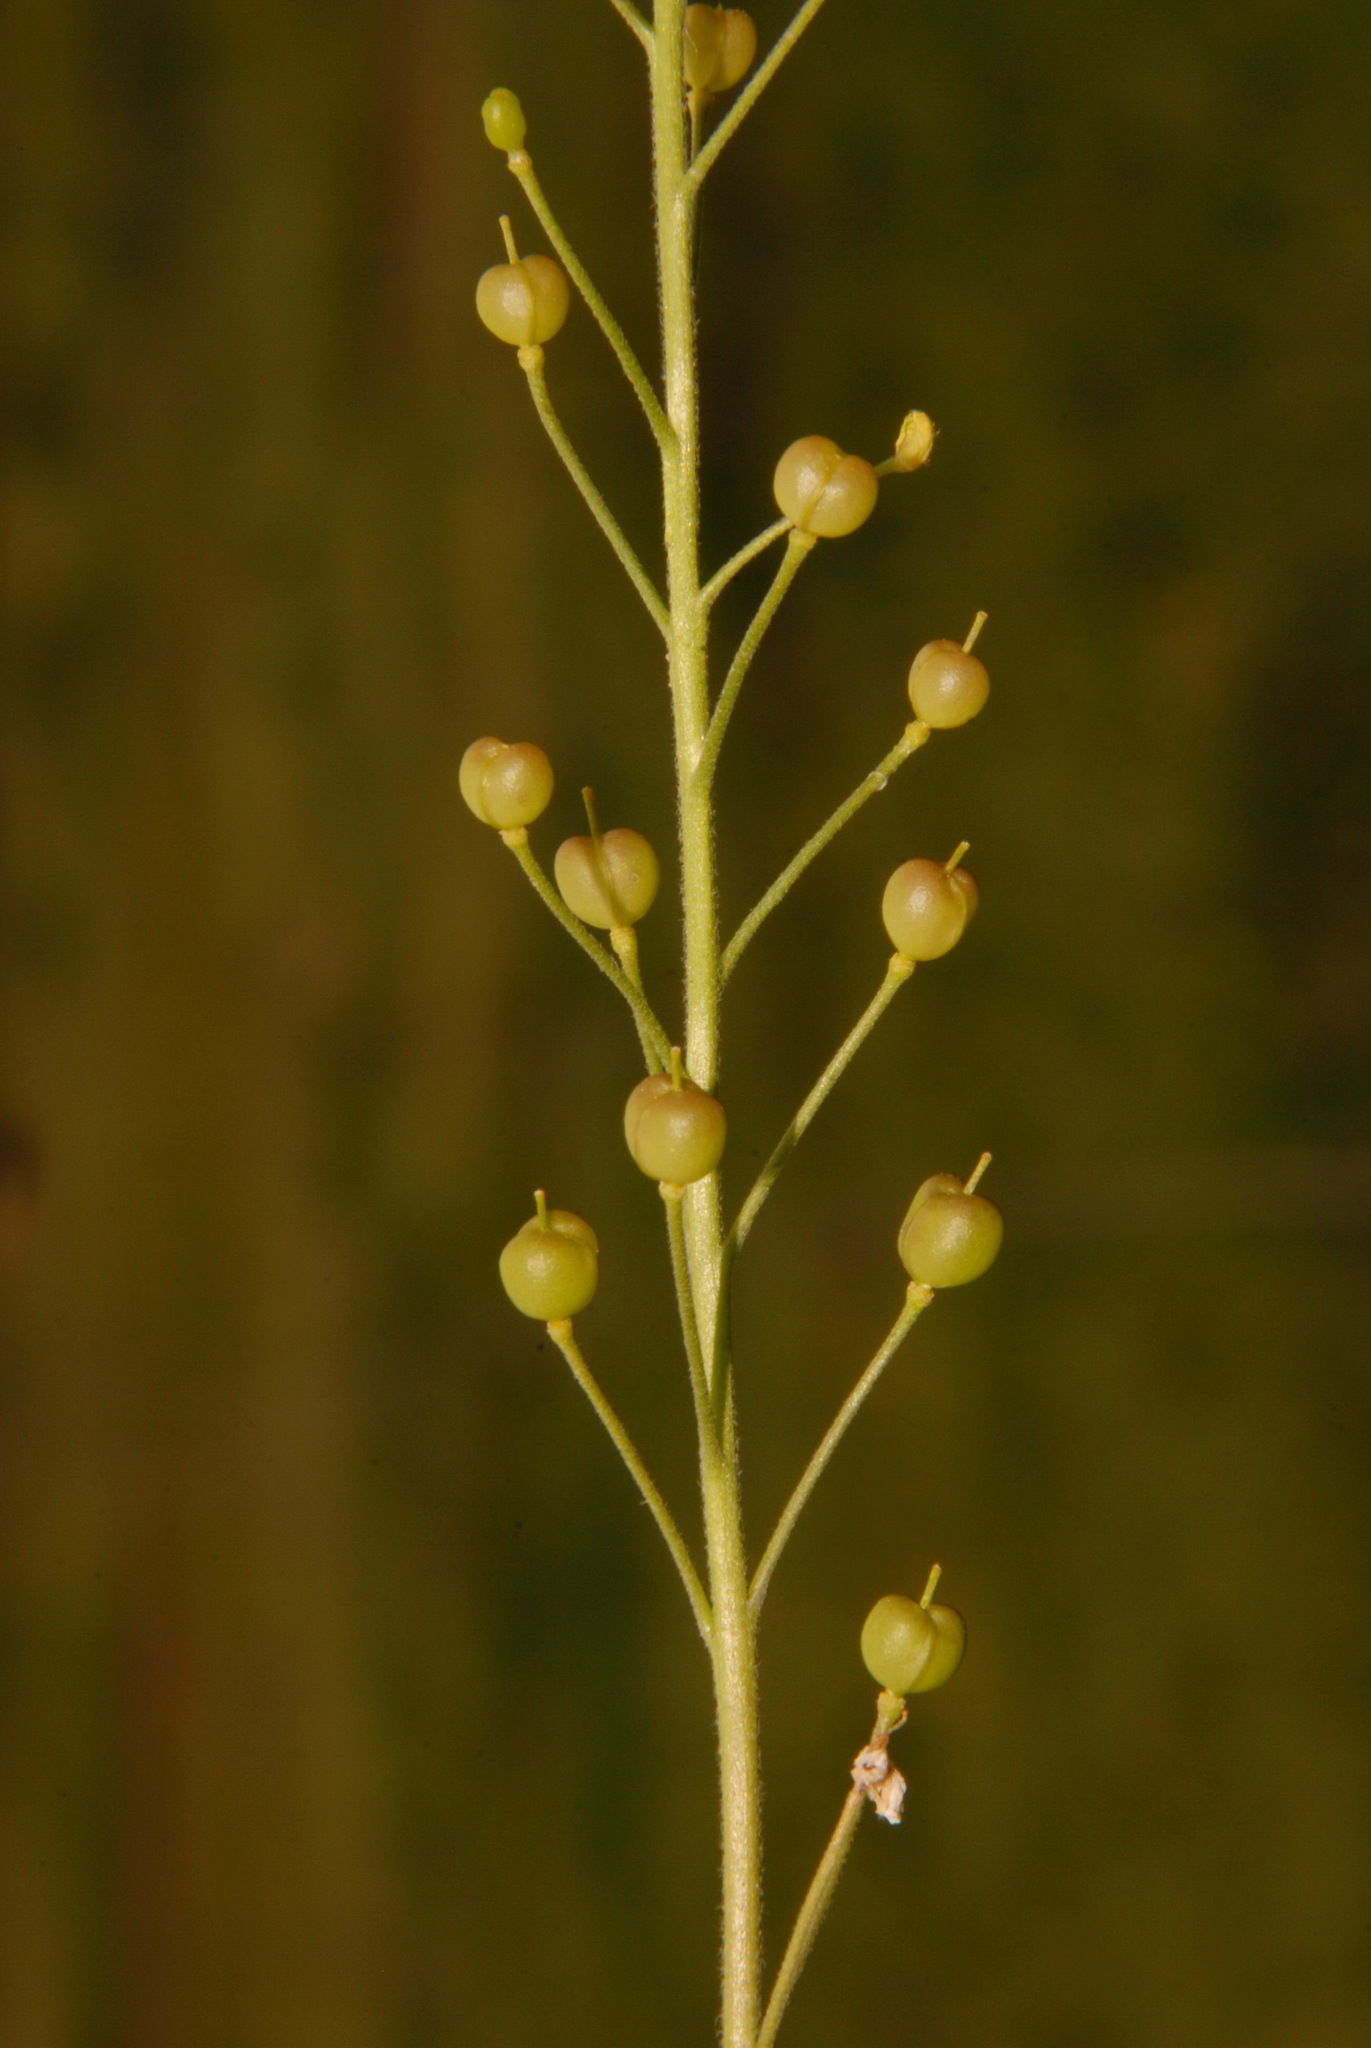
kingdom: Plantae
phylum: Tracheophyta
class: Magnoliopsida
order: Brassicales
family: Brassicaceae
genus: Paysonia
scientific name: Paysonia lyrata
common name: Lyrate bladderpod
